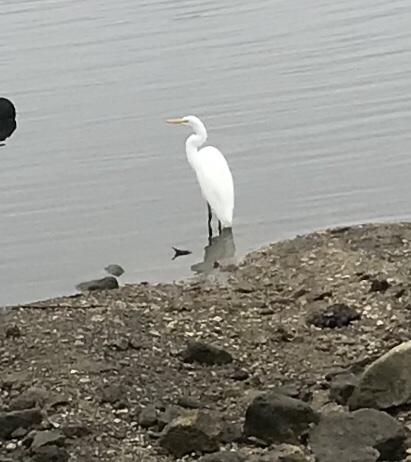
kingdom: Animalia
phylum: Chordata
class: Aves
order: Pelecaniformes
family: Ardeidae
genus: Ardea
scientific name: Ardea alba
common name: Great egret
